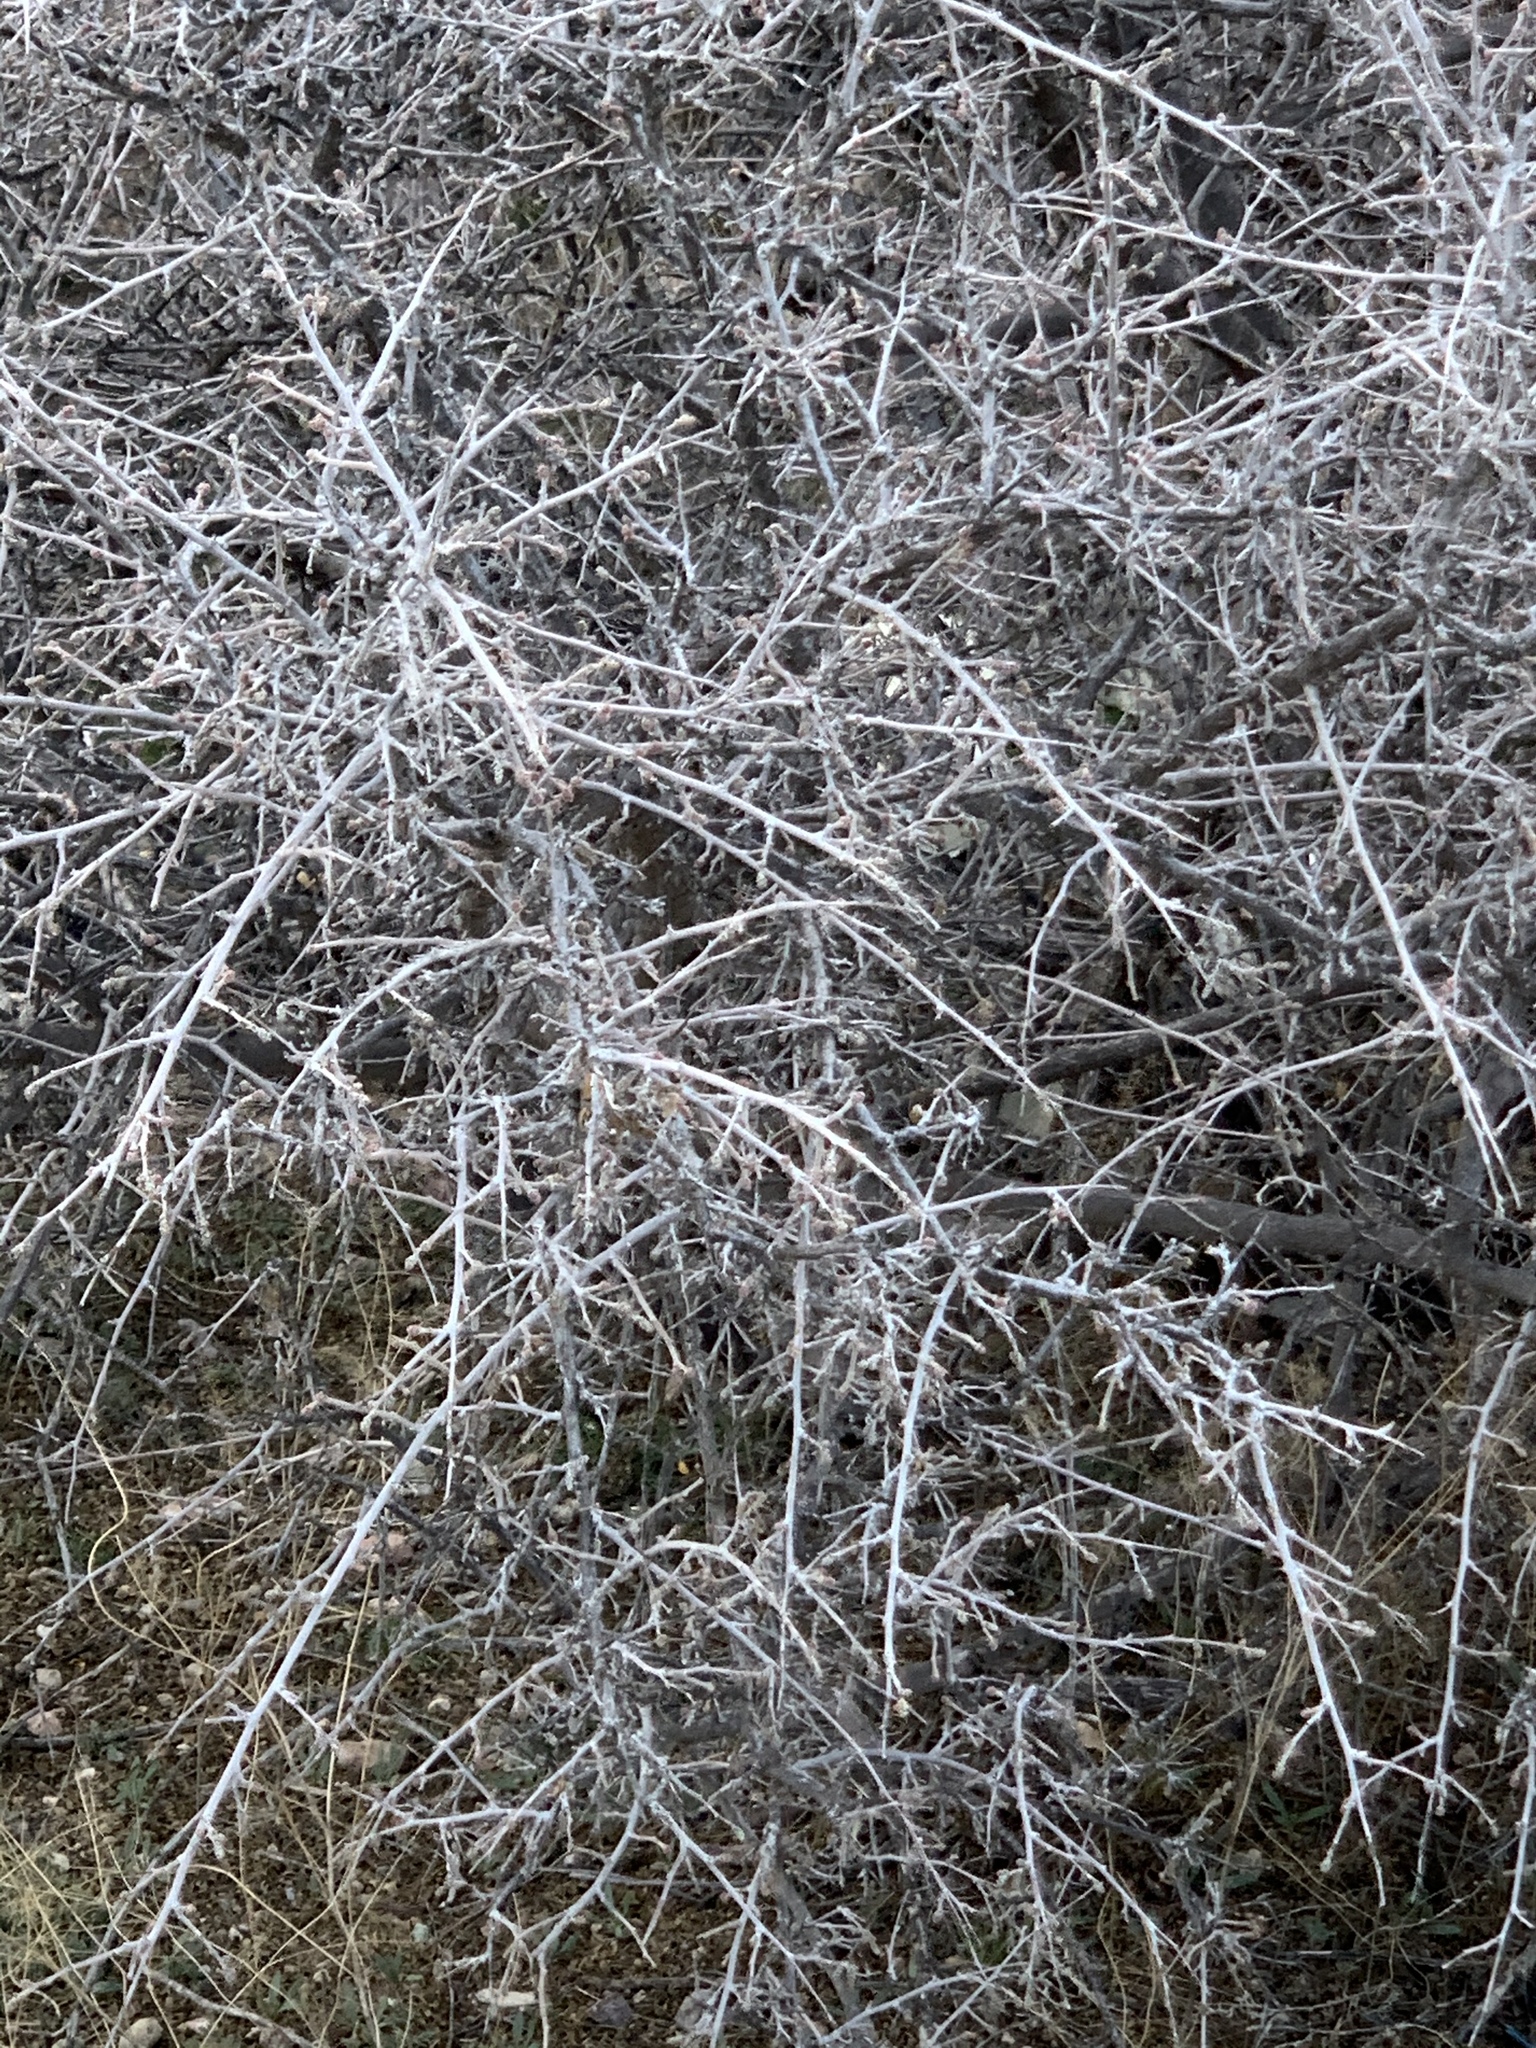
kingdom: Plantae
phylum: Tracheophyta
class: Magnoliopsida
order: Sapindales
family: Anacardiaceae
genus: Rhus
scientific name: Rhus microphylla
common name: Desert sumac
